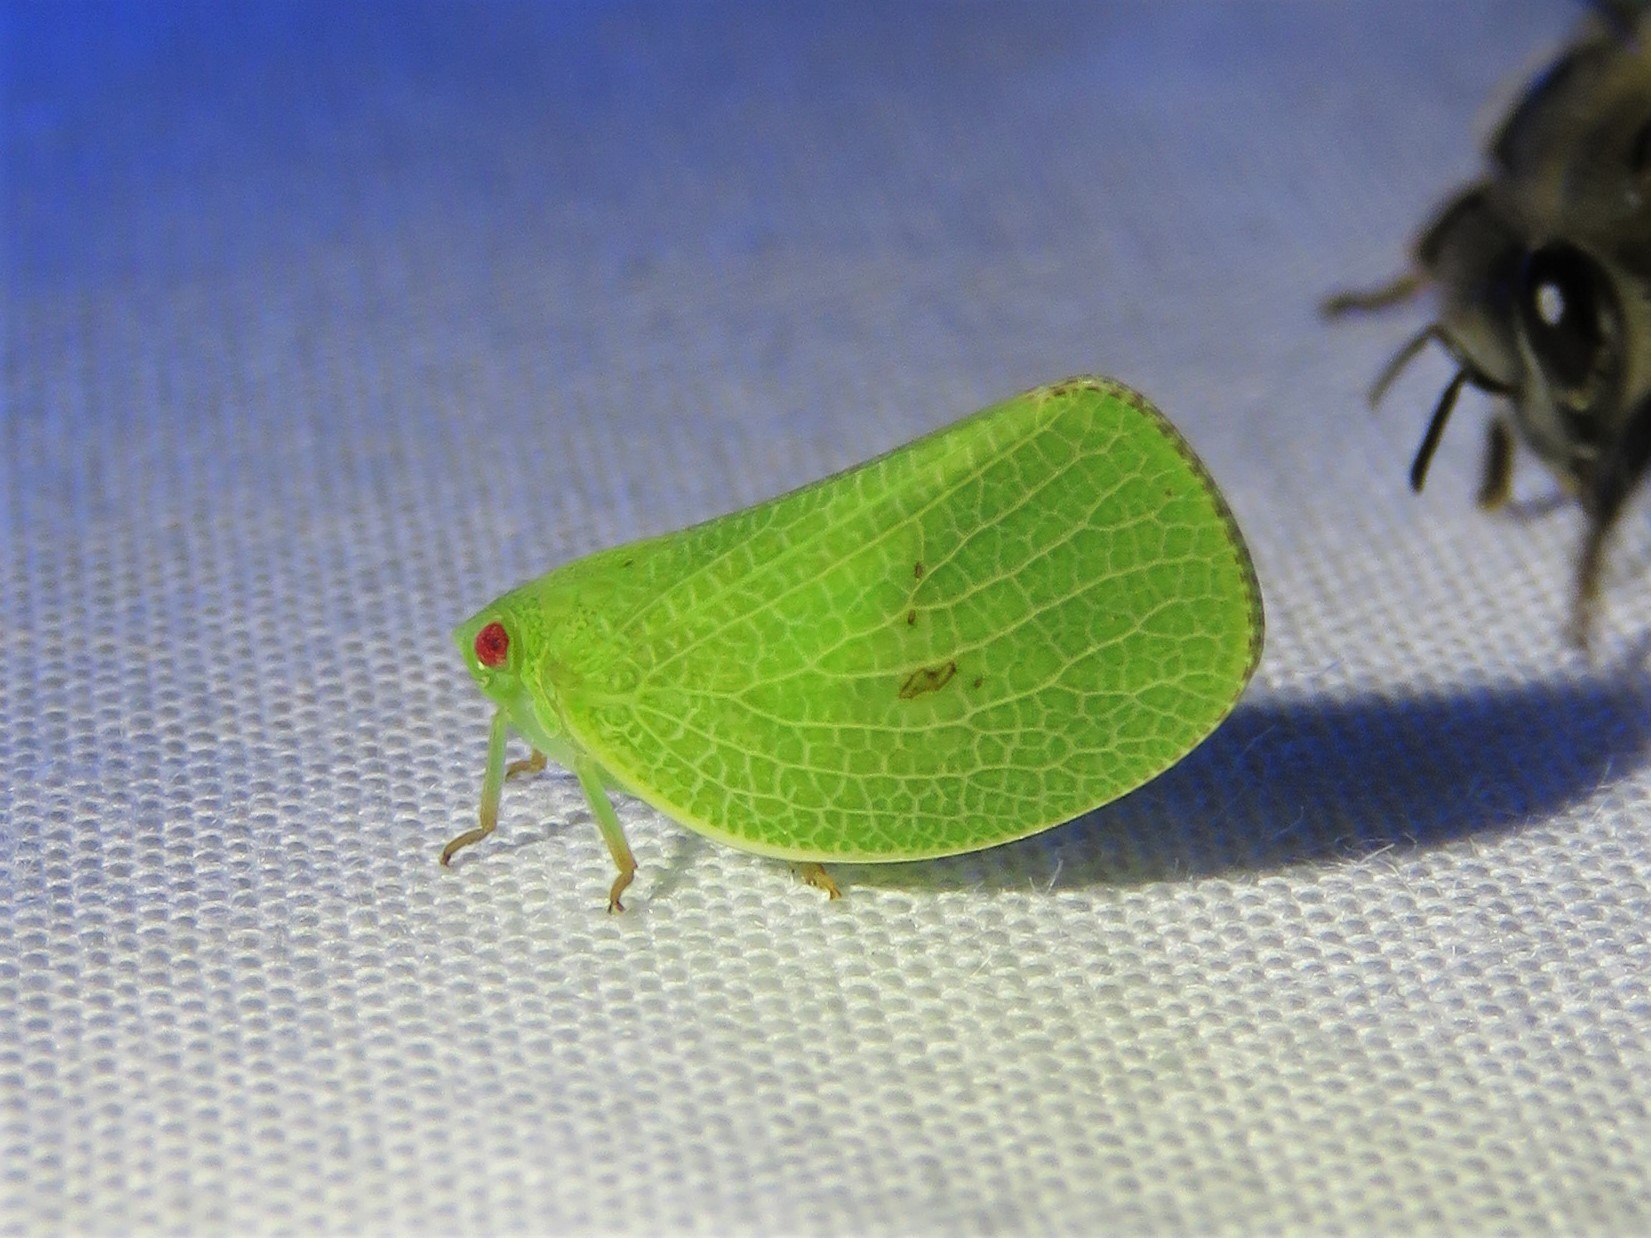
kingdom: Animalia
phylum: Arthropoda
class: Insecta
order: Hemiptera
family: Acanaloniidae
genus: Acanalonia
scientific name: Acanalonia conica
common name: Green cone-headed planthopper
